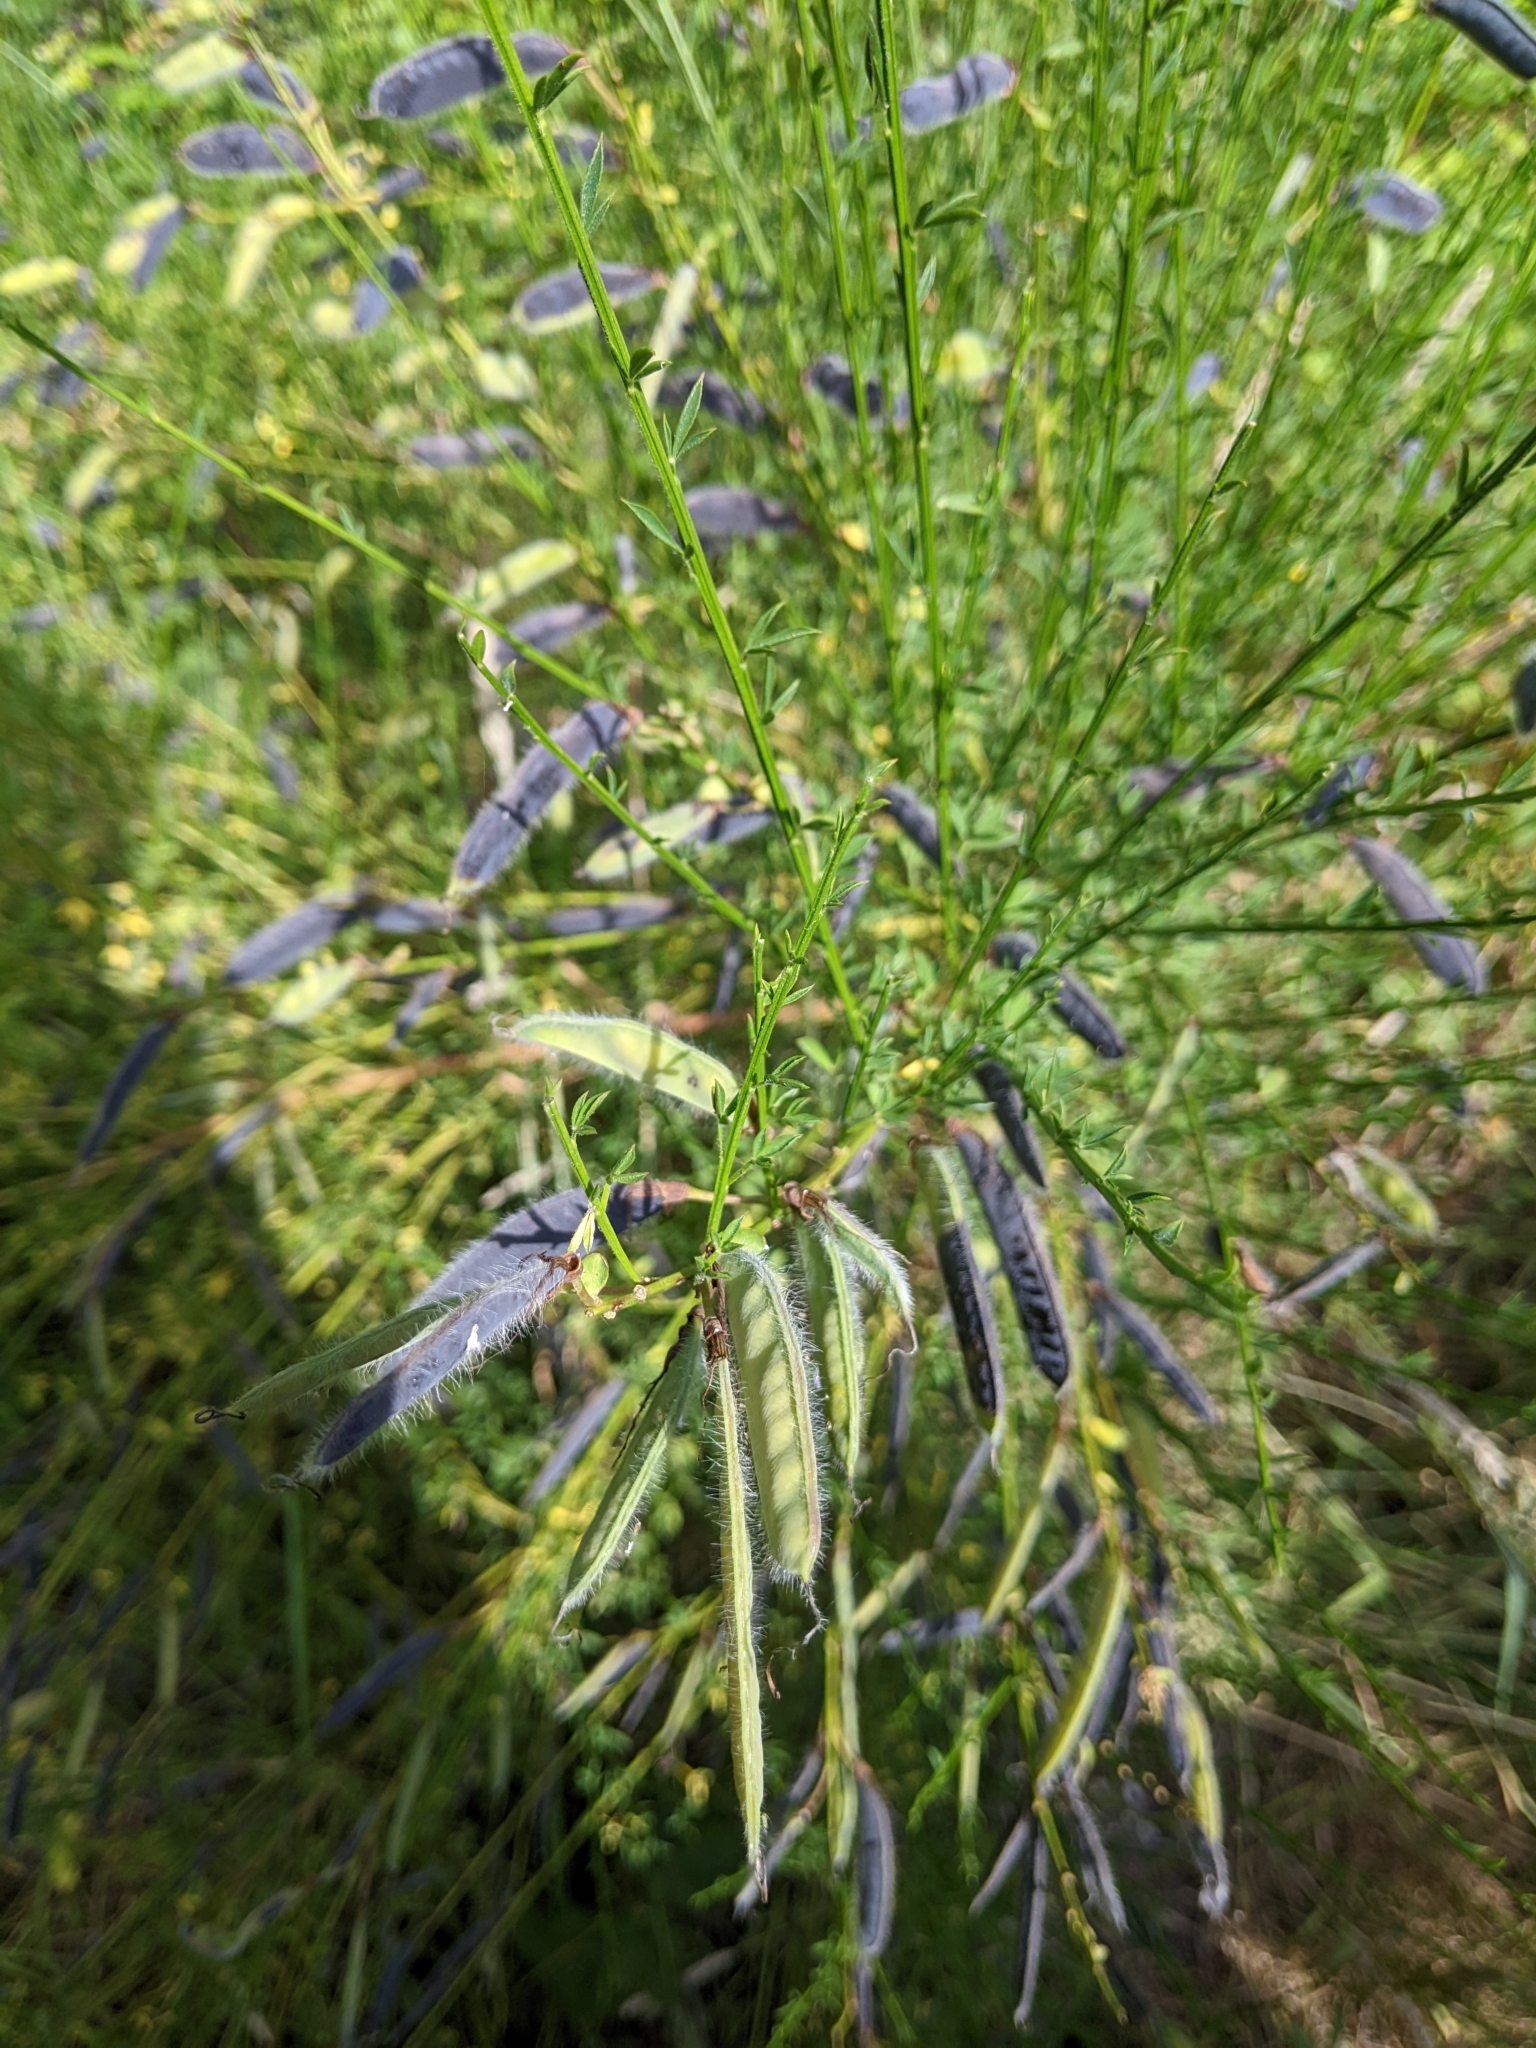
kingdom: Plantae
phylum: Tracheophyta
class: Magnoliopsida
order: Fabales
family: Fabaceae
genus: Cytisus
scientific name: Cytisus scoparius
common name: Scotch broom
